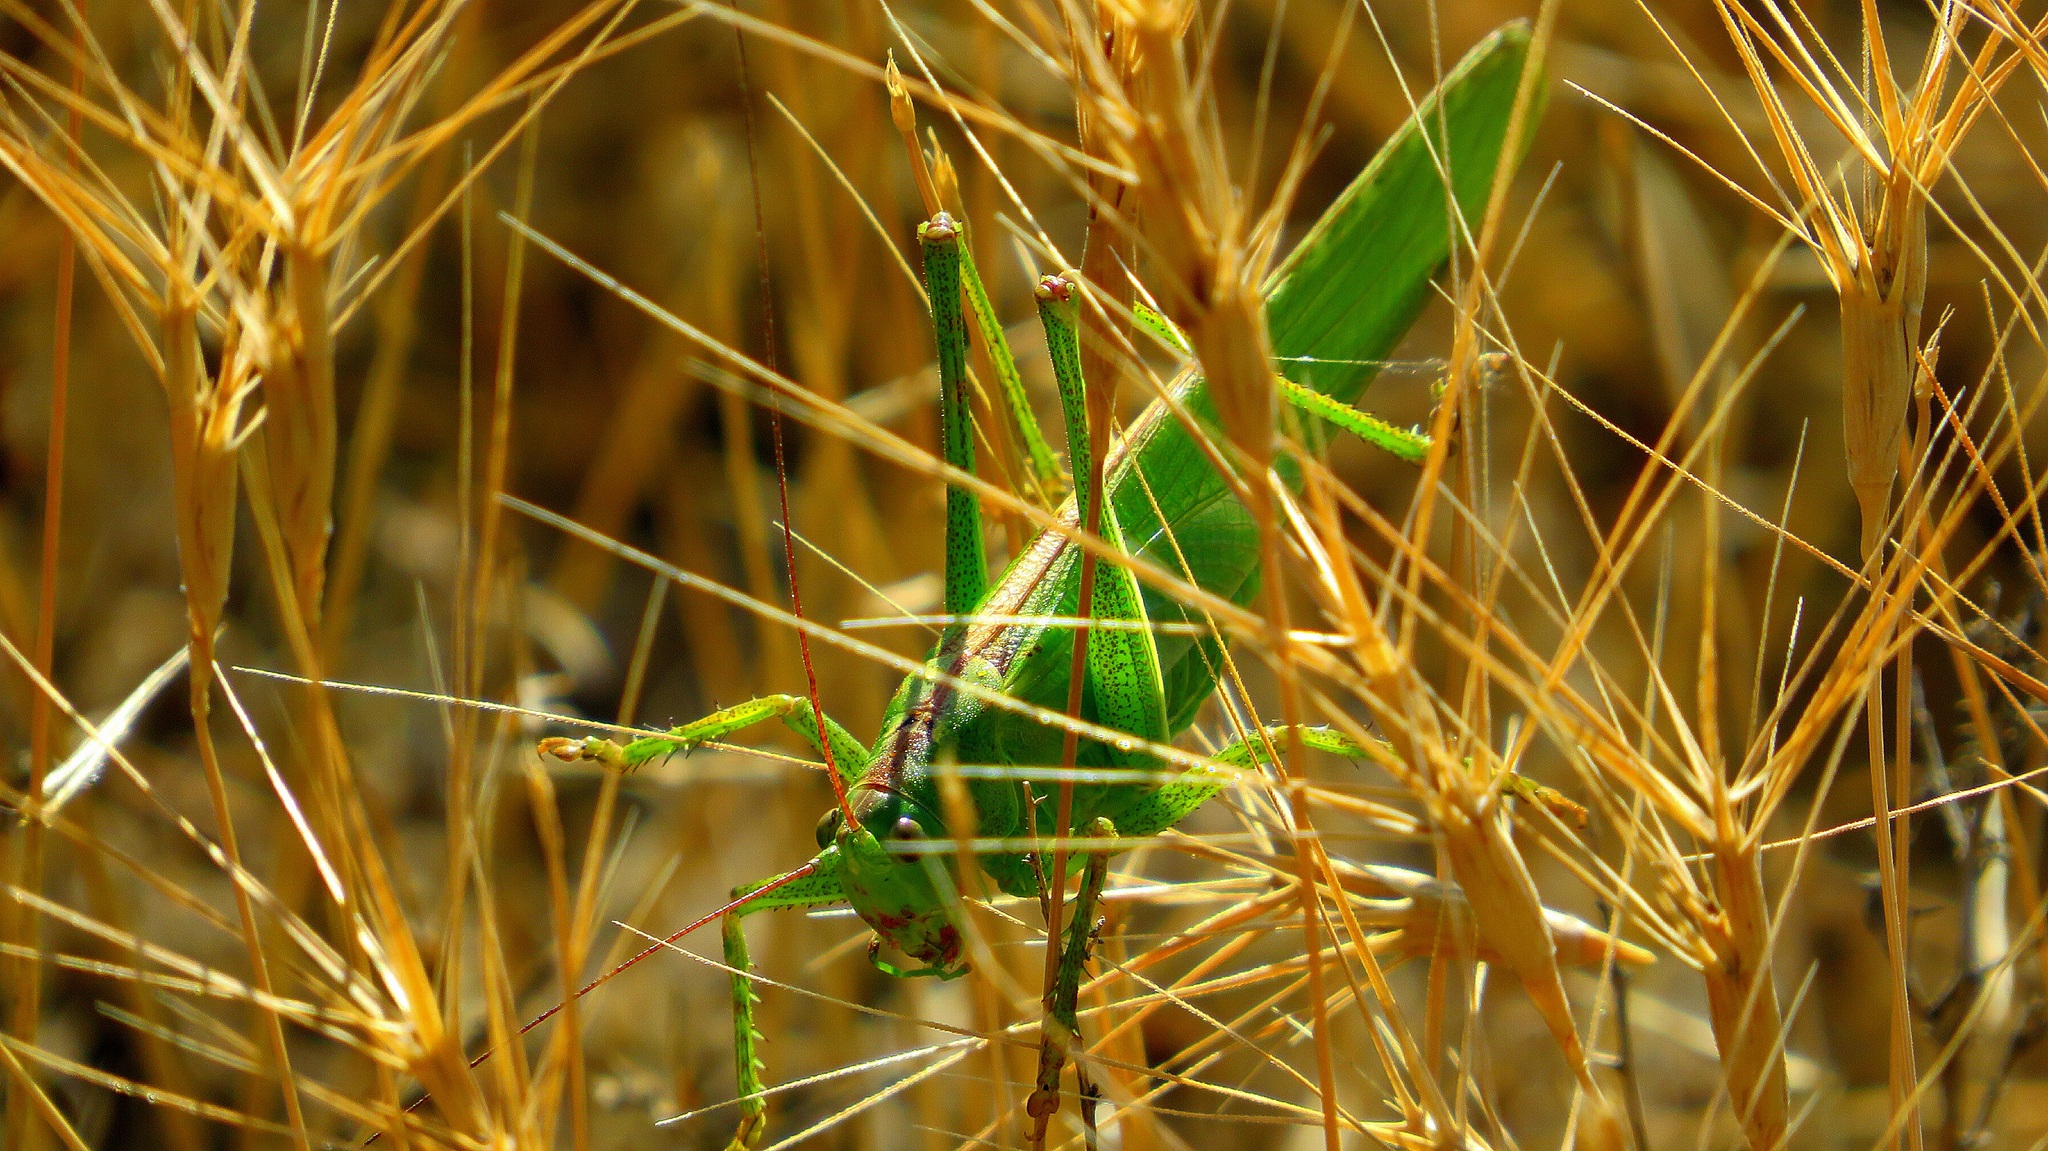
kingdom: Animalia
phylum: Arthropoda
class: Insecta
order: Orthoptera
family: Tettigoniidae
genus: Tettigonia
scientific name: Tettigonia viridissima
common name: Great green bush-cricket
